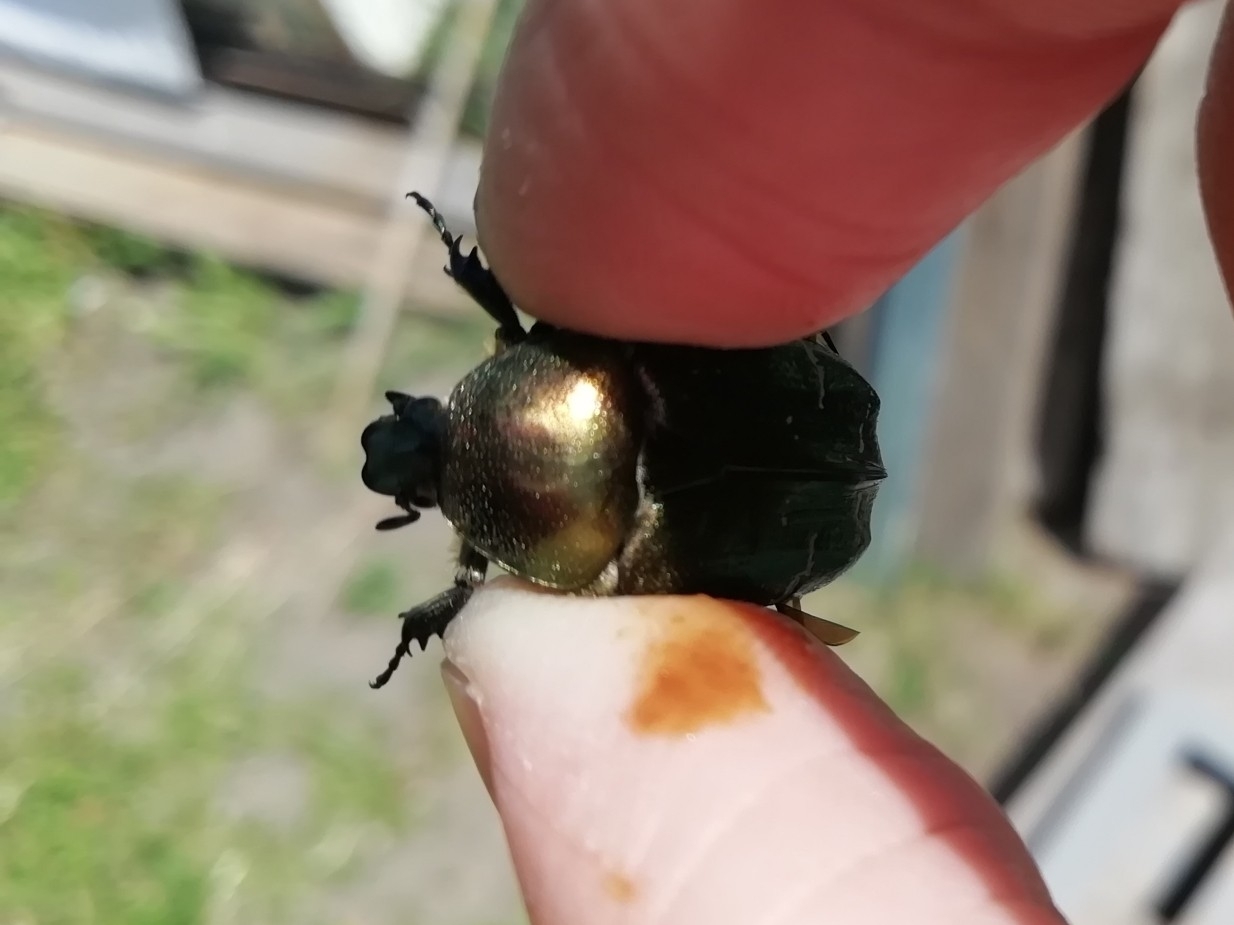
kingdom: Animalia
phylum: Arthropoda
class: Insecta
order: Coleoptera
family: Scarabaeidae
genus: Cetonia
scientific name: Cetonia aurata
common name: Rose chafer
